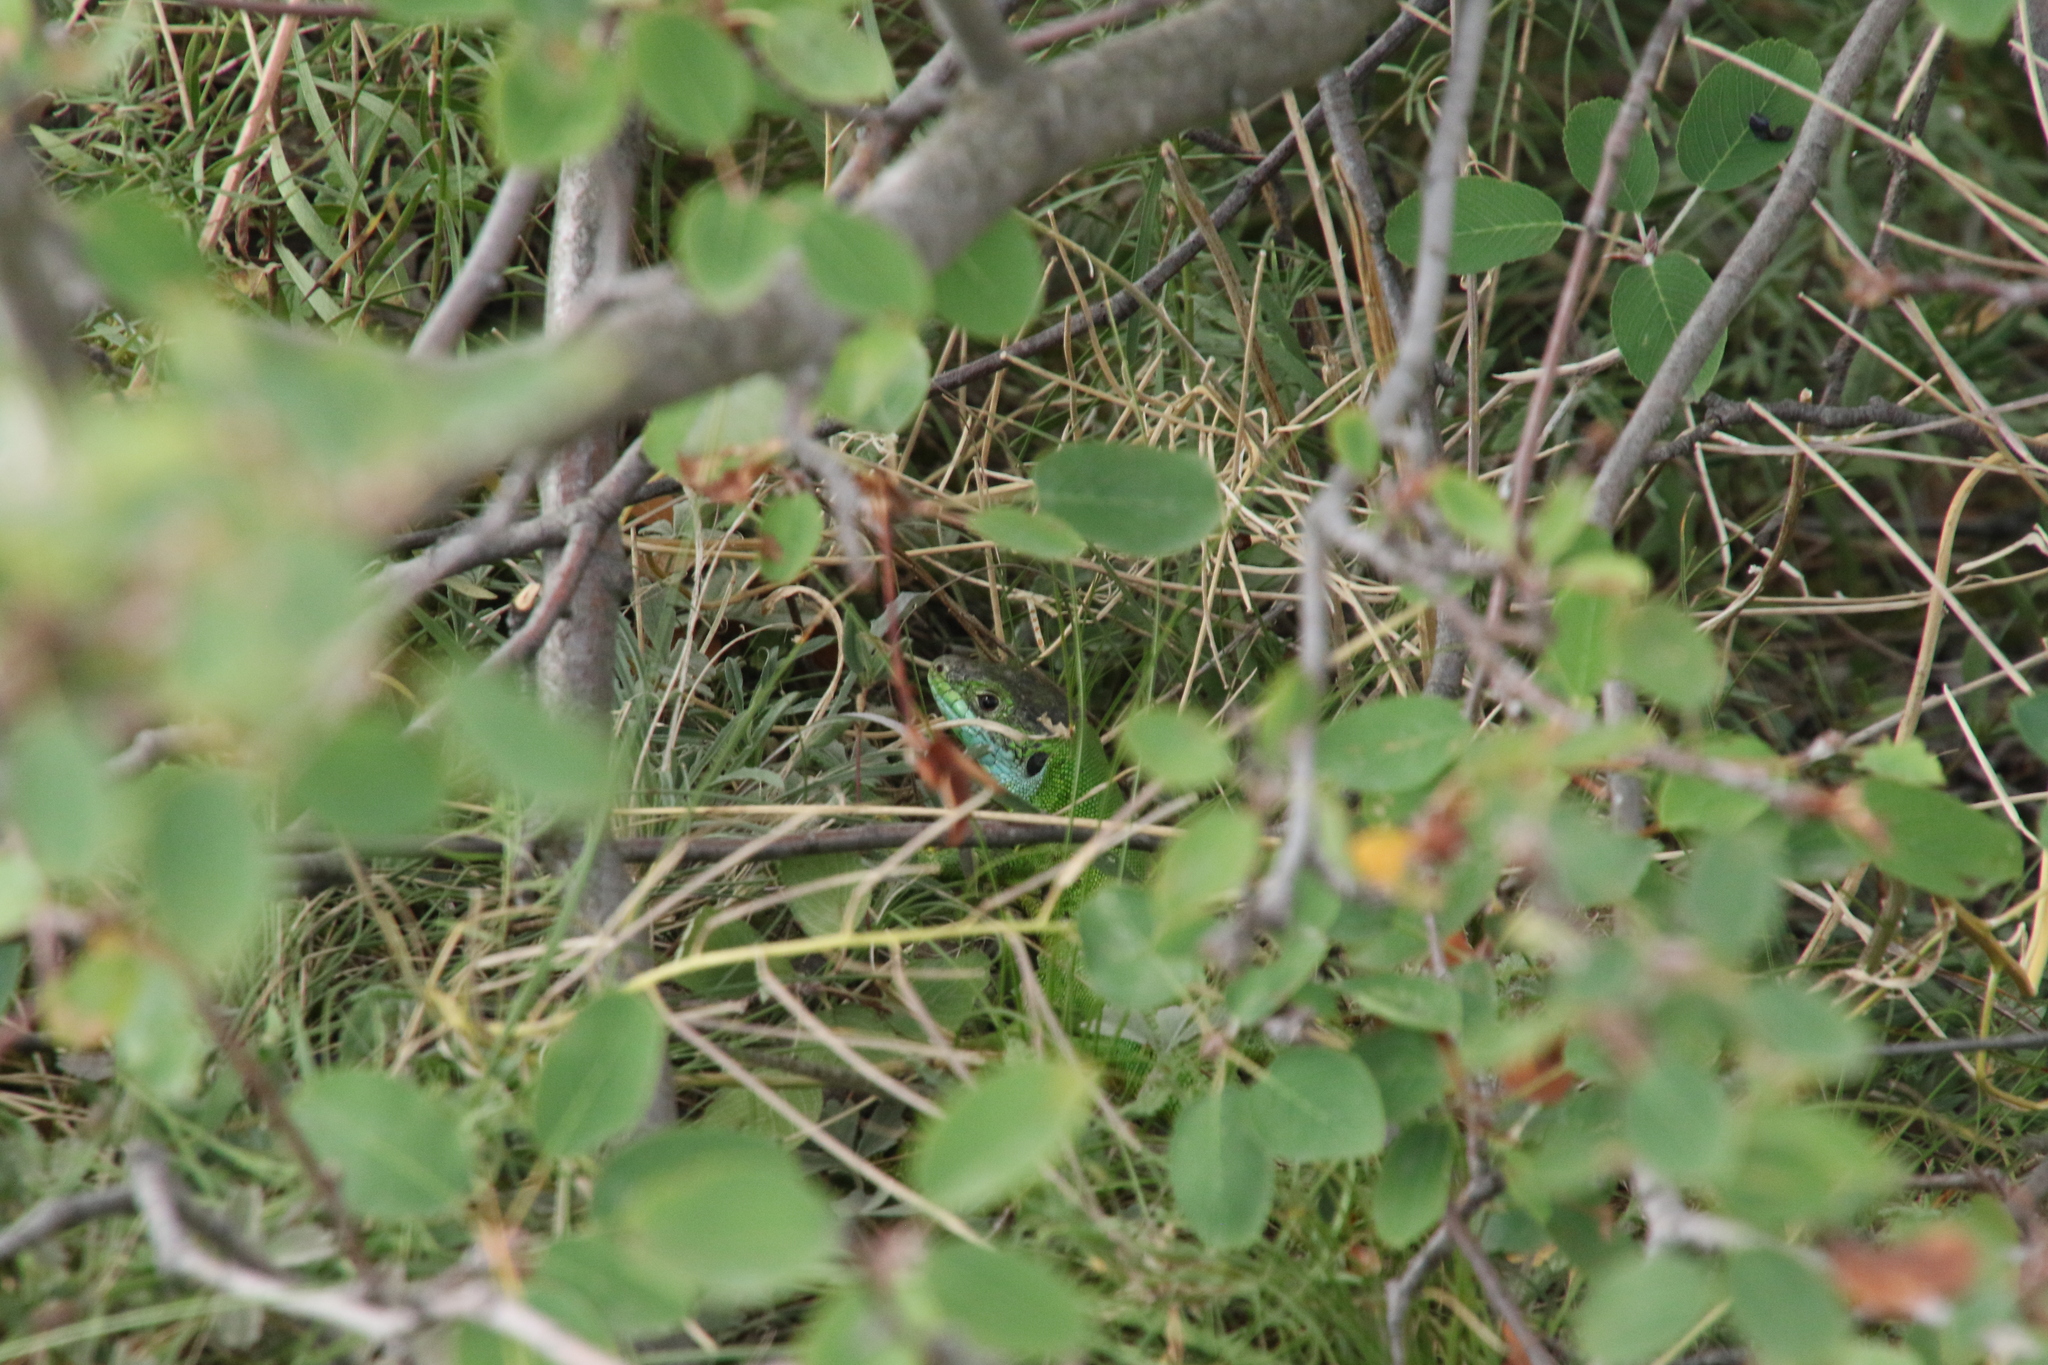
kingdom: Animalia
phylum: Chordata
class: Squamata
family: Lacertidae
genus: Lacerta
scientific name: Lacerta bilineata
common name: Western green lizard
